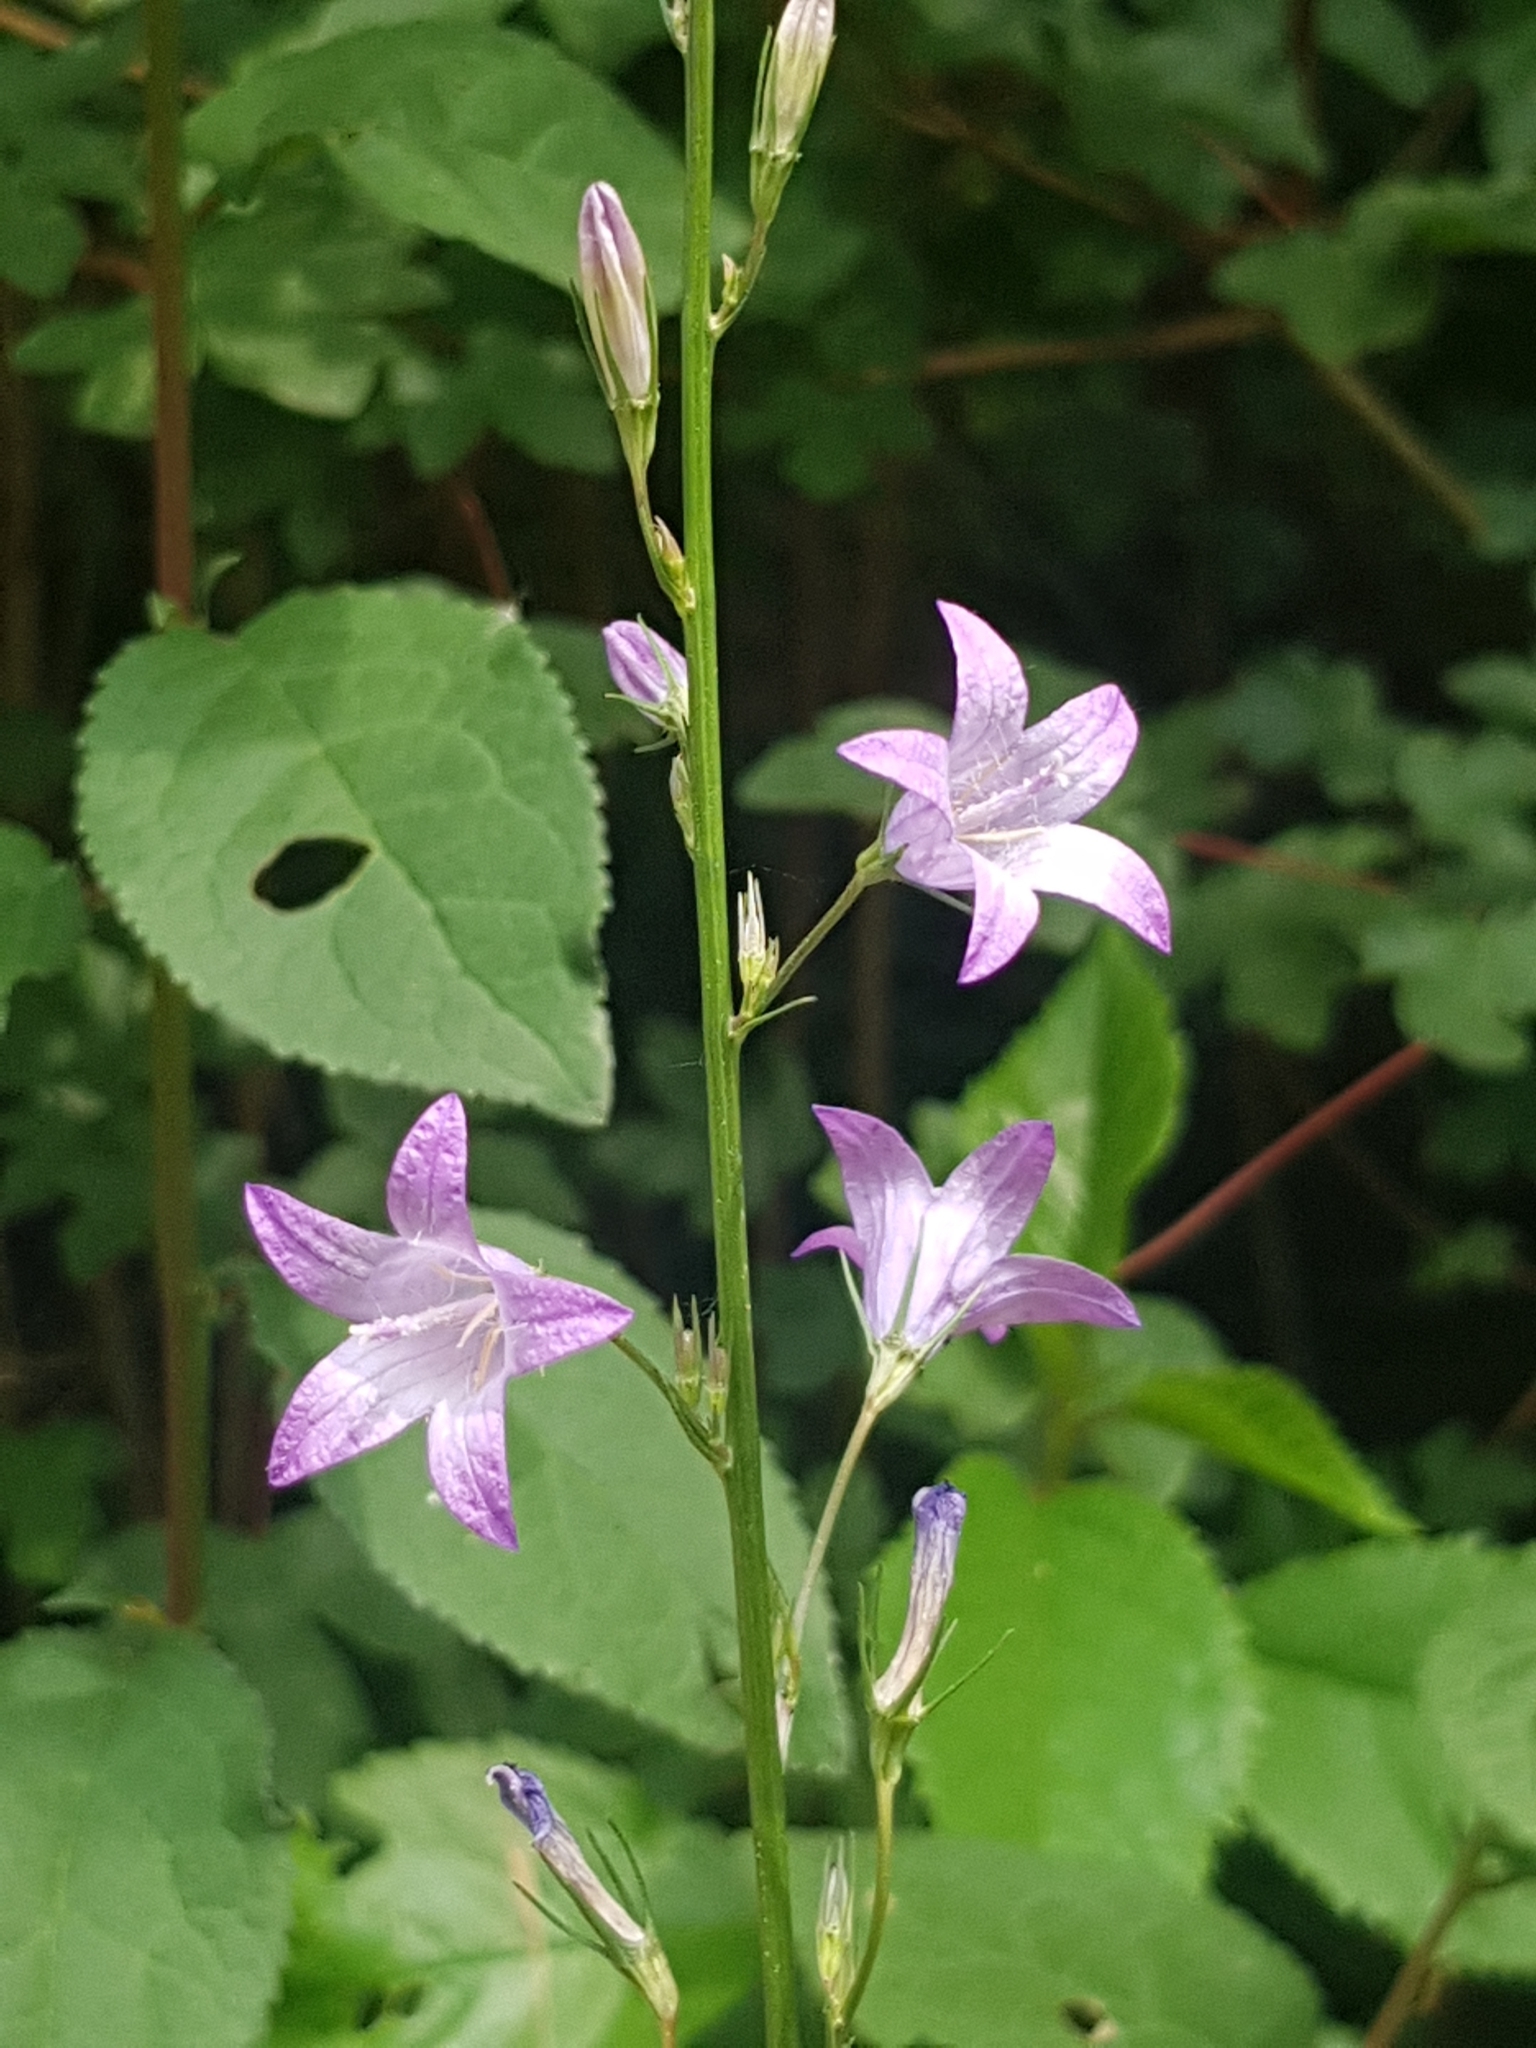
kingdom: Plantae
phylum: Tracheophyta
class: Magnoliopsida
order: Asterales
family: Campanulaceae
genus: Campanula
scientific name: Campanula rapunculus
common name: Rampion bellflower
